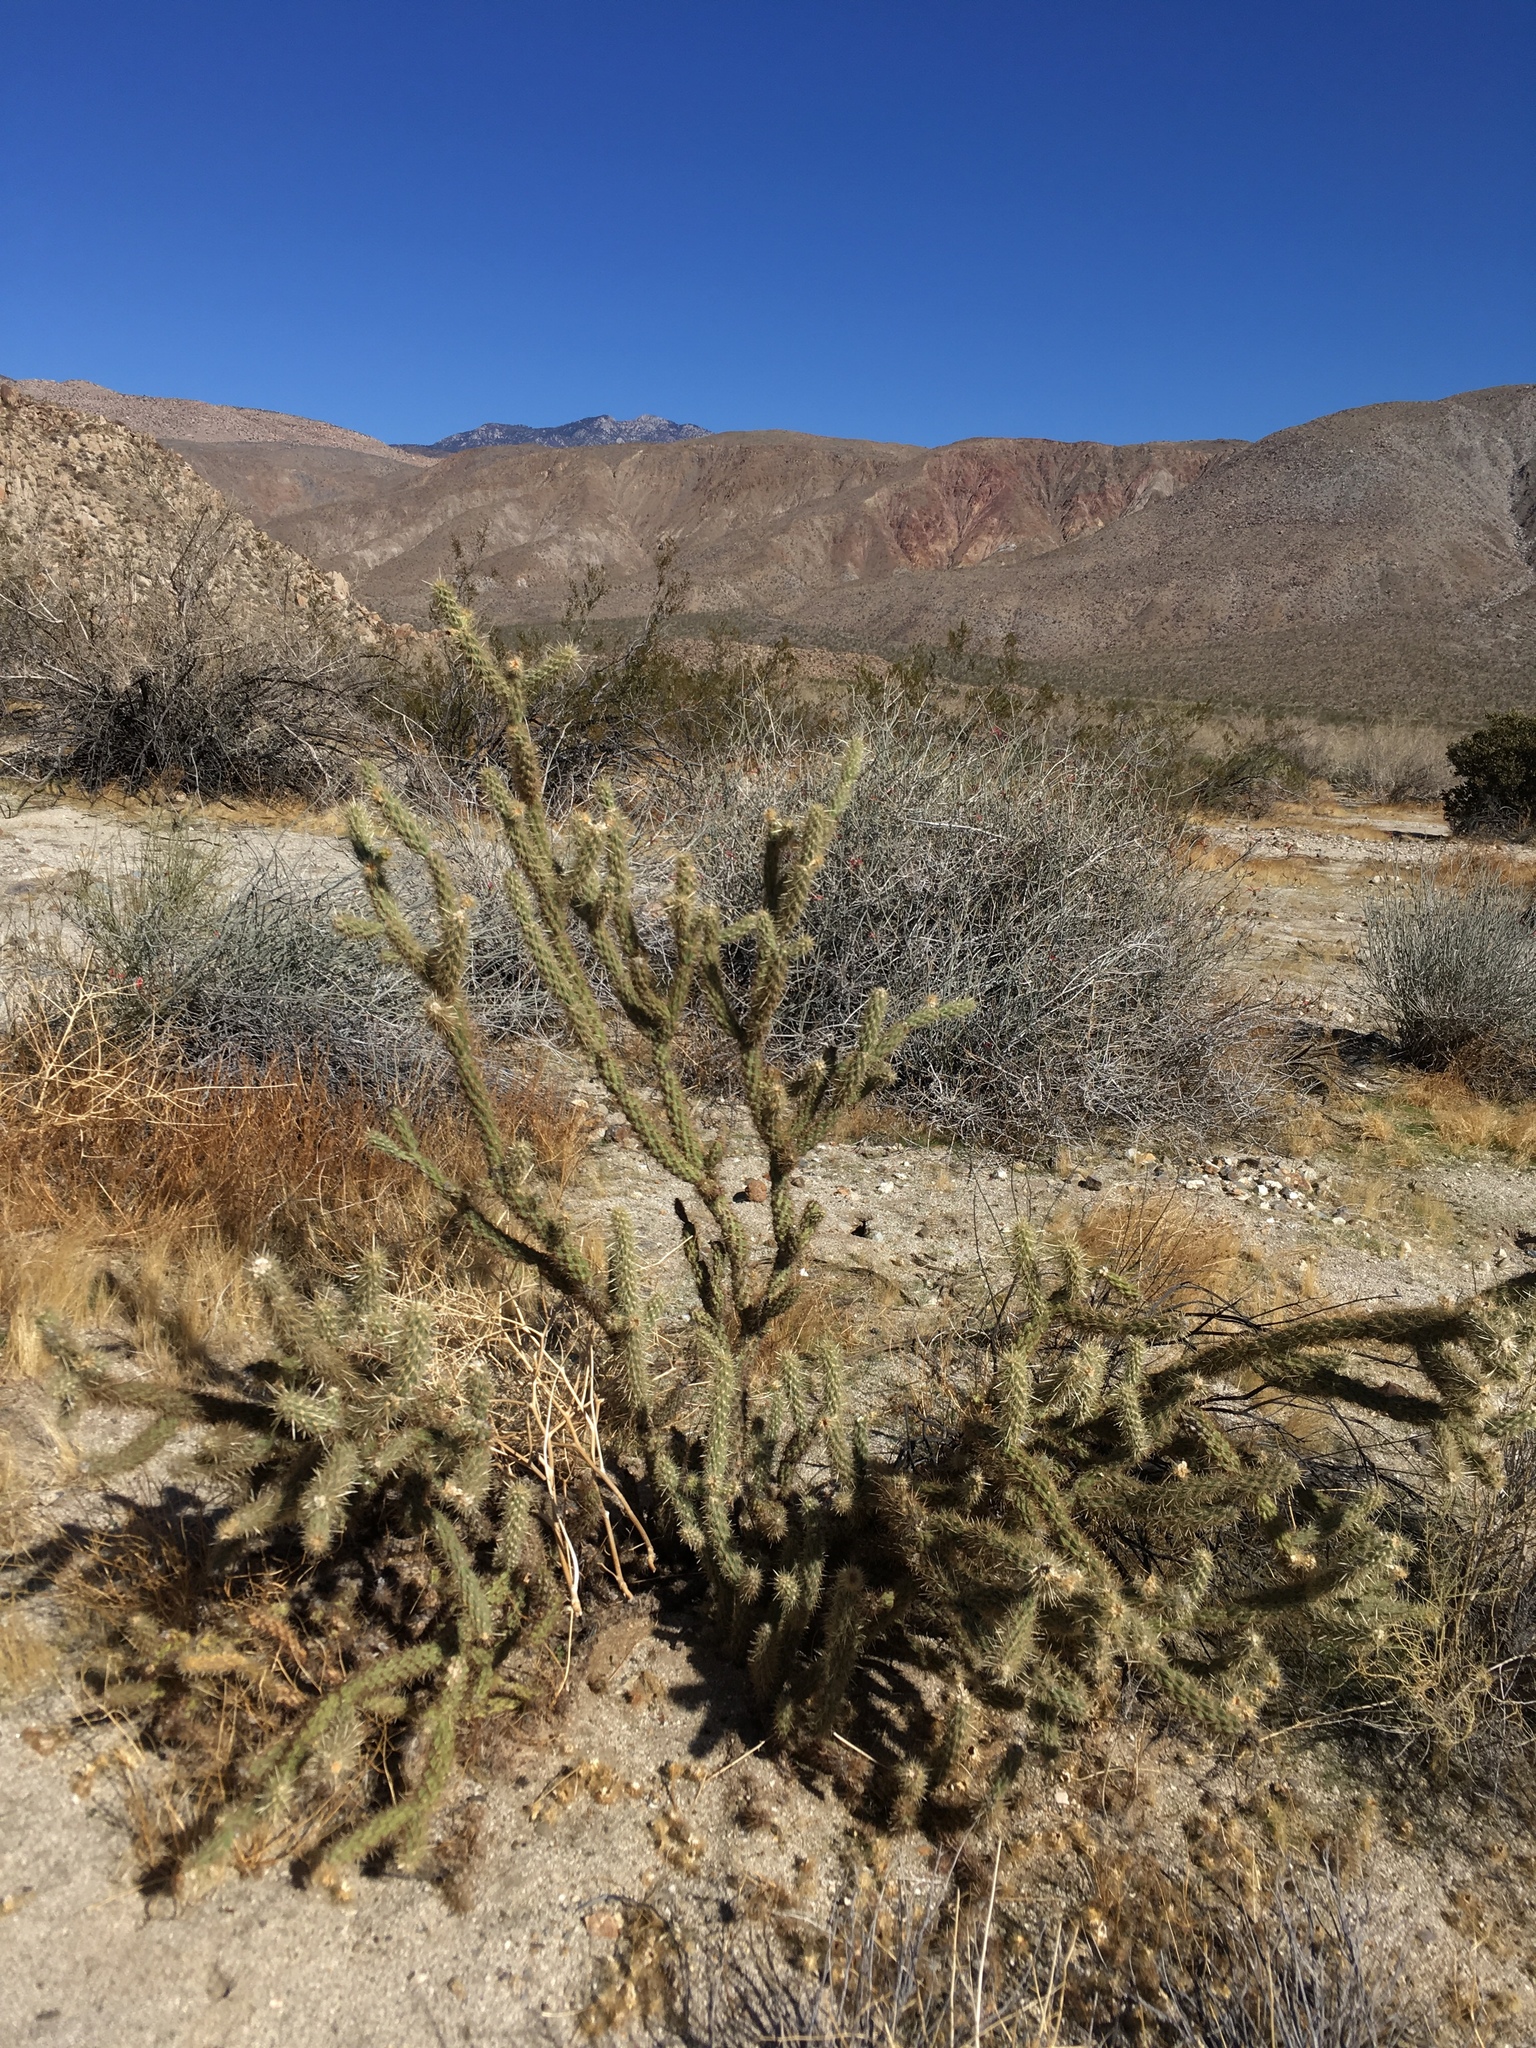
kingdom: Plantae
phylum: Tracheophyta
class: Magnoliopsida
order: Caryophyllales
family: Cactaceae
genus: Cylindropuntia
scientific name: Cylindropuntia ganderi
